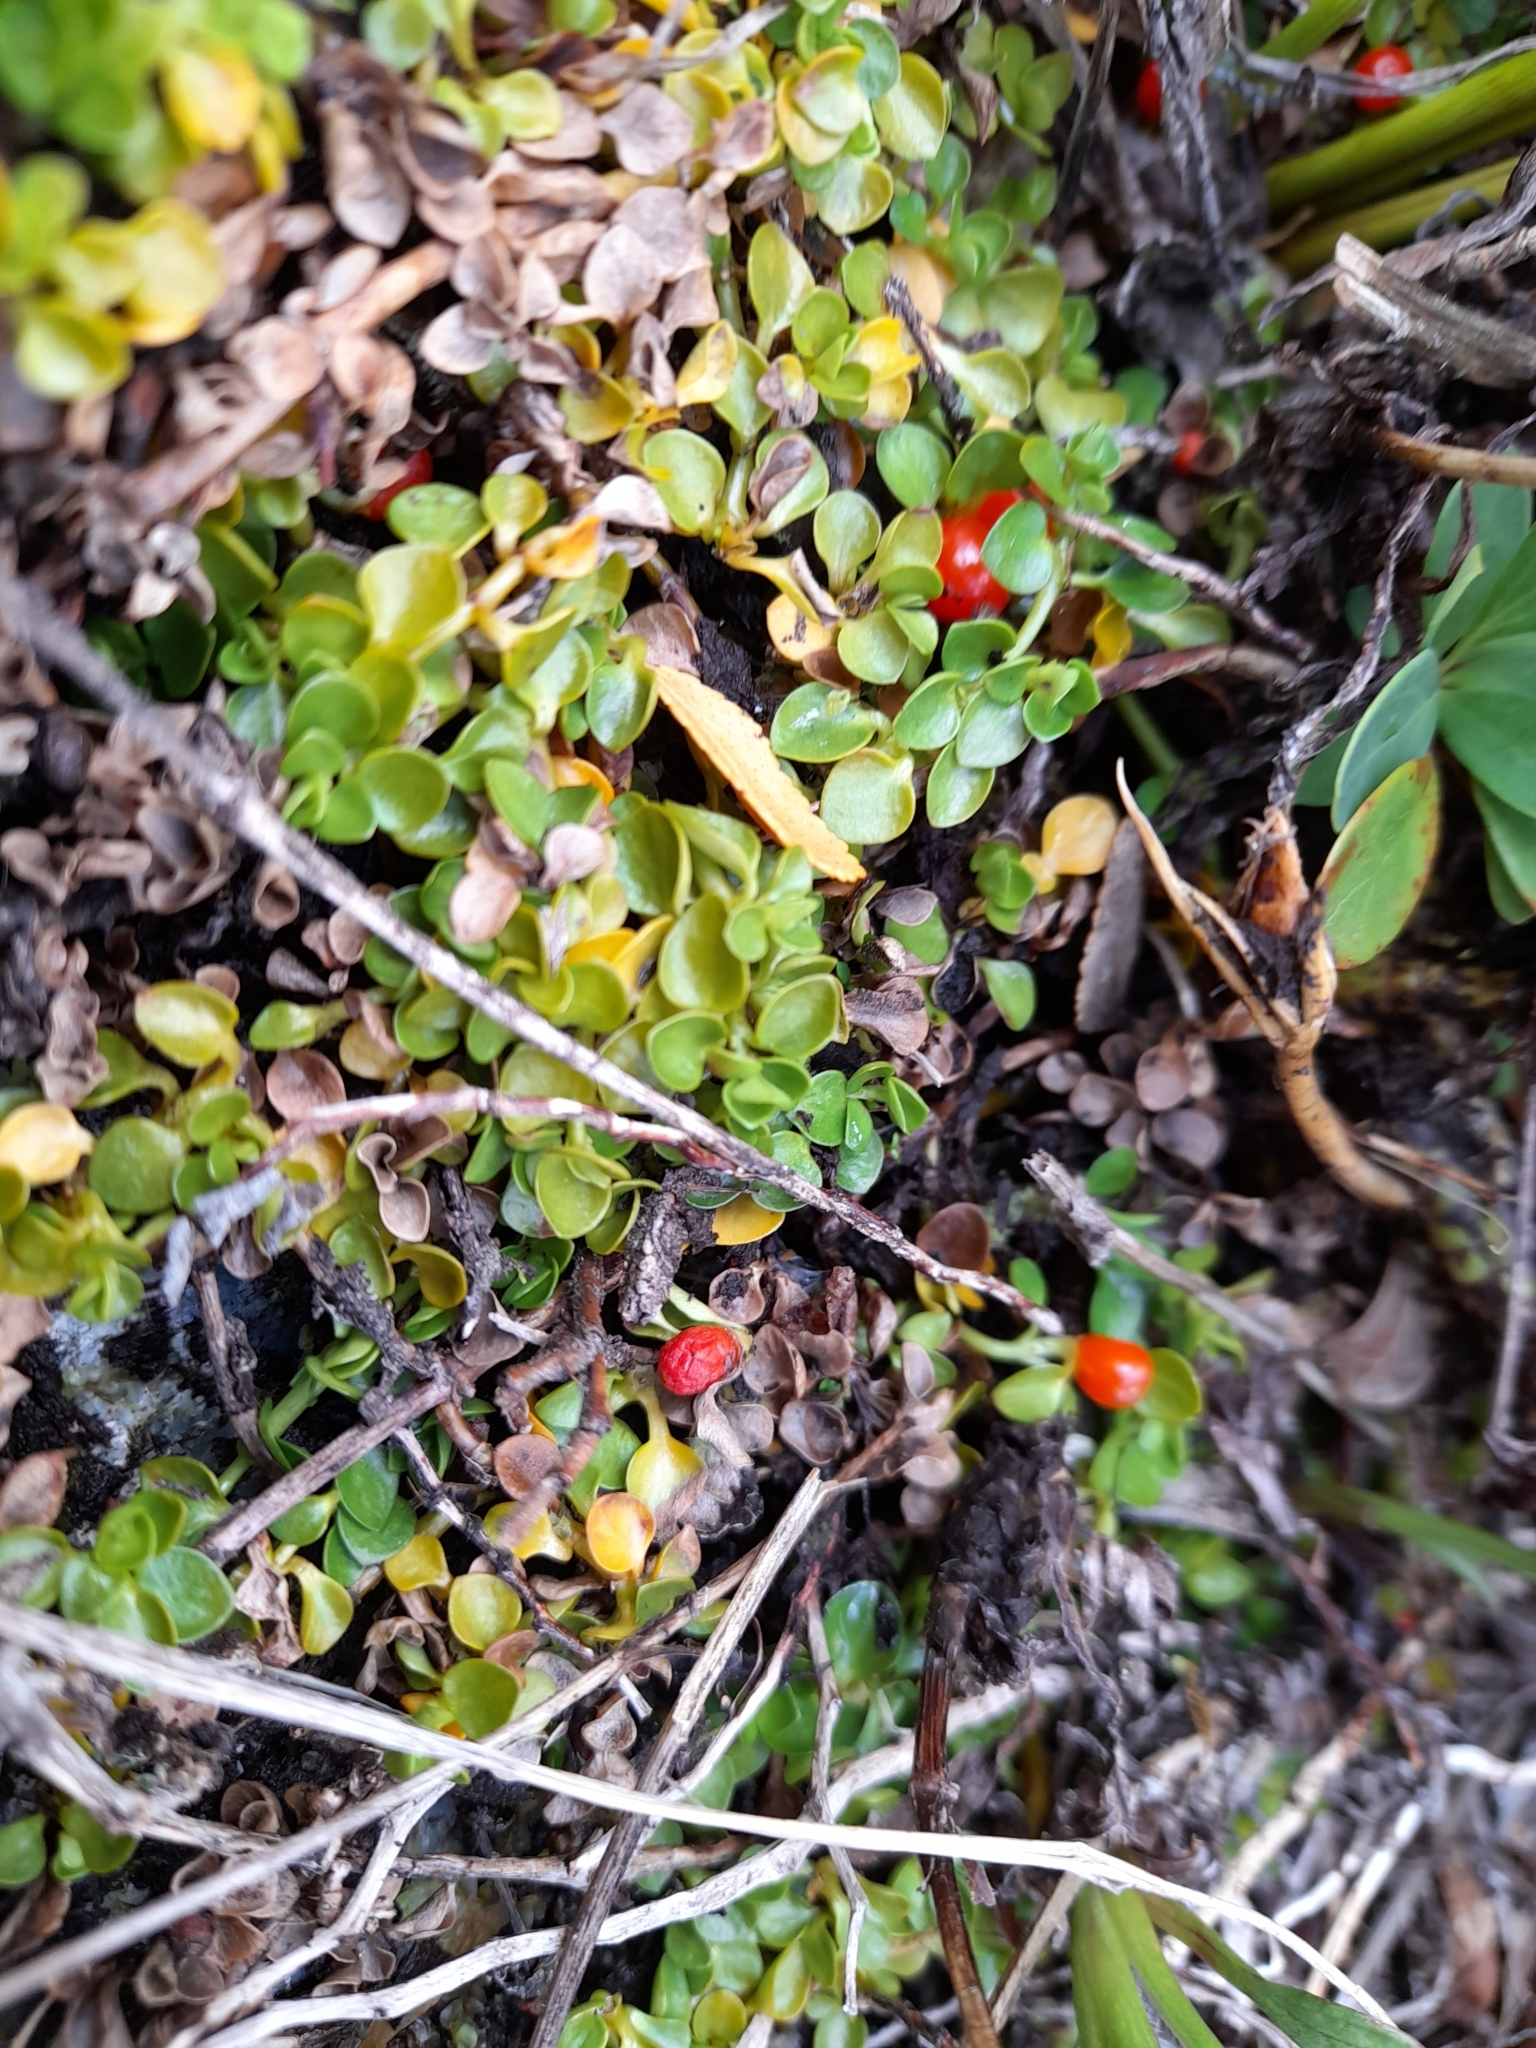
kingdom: Plantae
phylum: Tracheophyta
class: Magnoliopsida
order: Gentianales
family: Rubiaceae
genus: Nertera
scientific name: Nertera granadensis
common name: Beadplant
